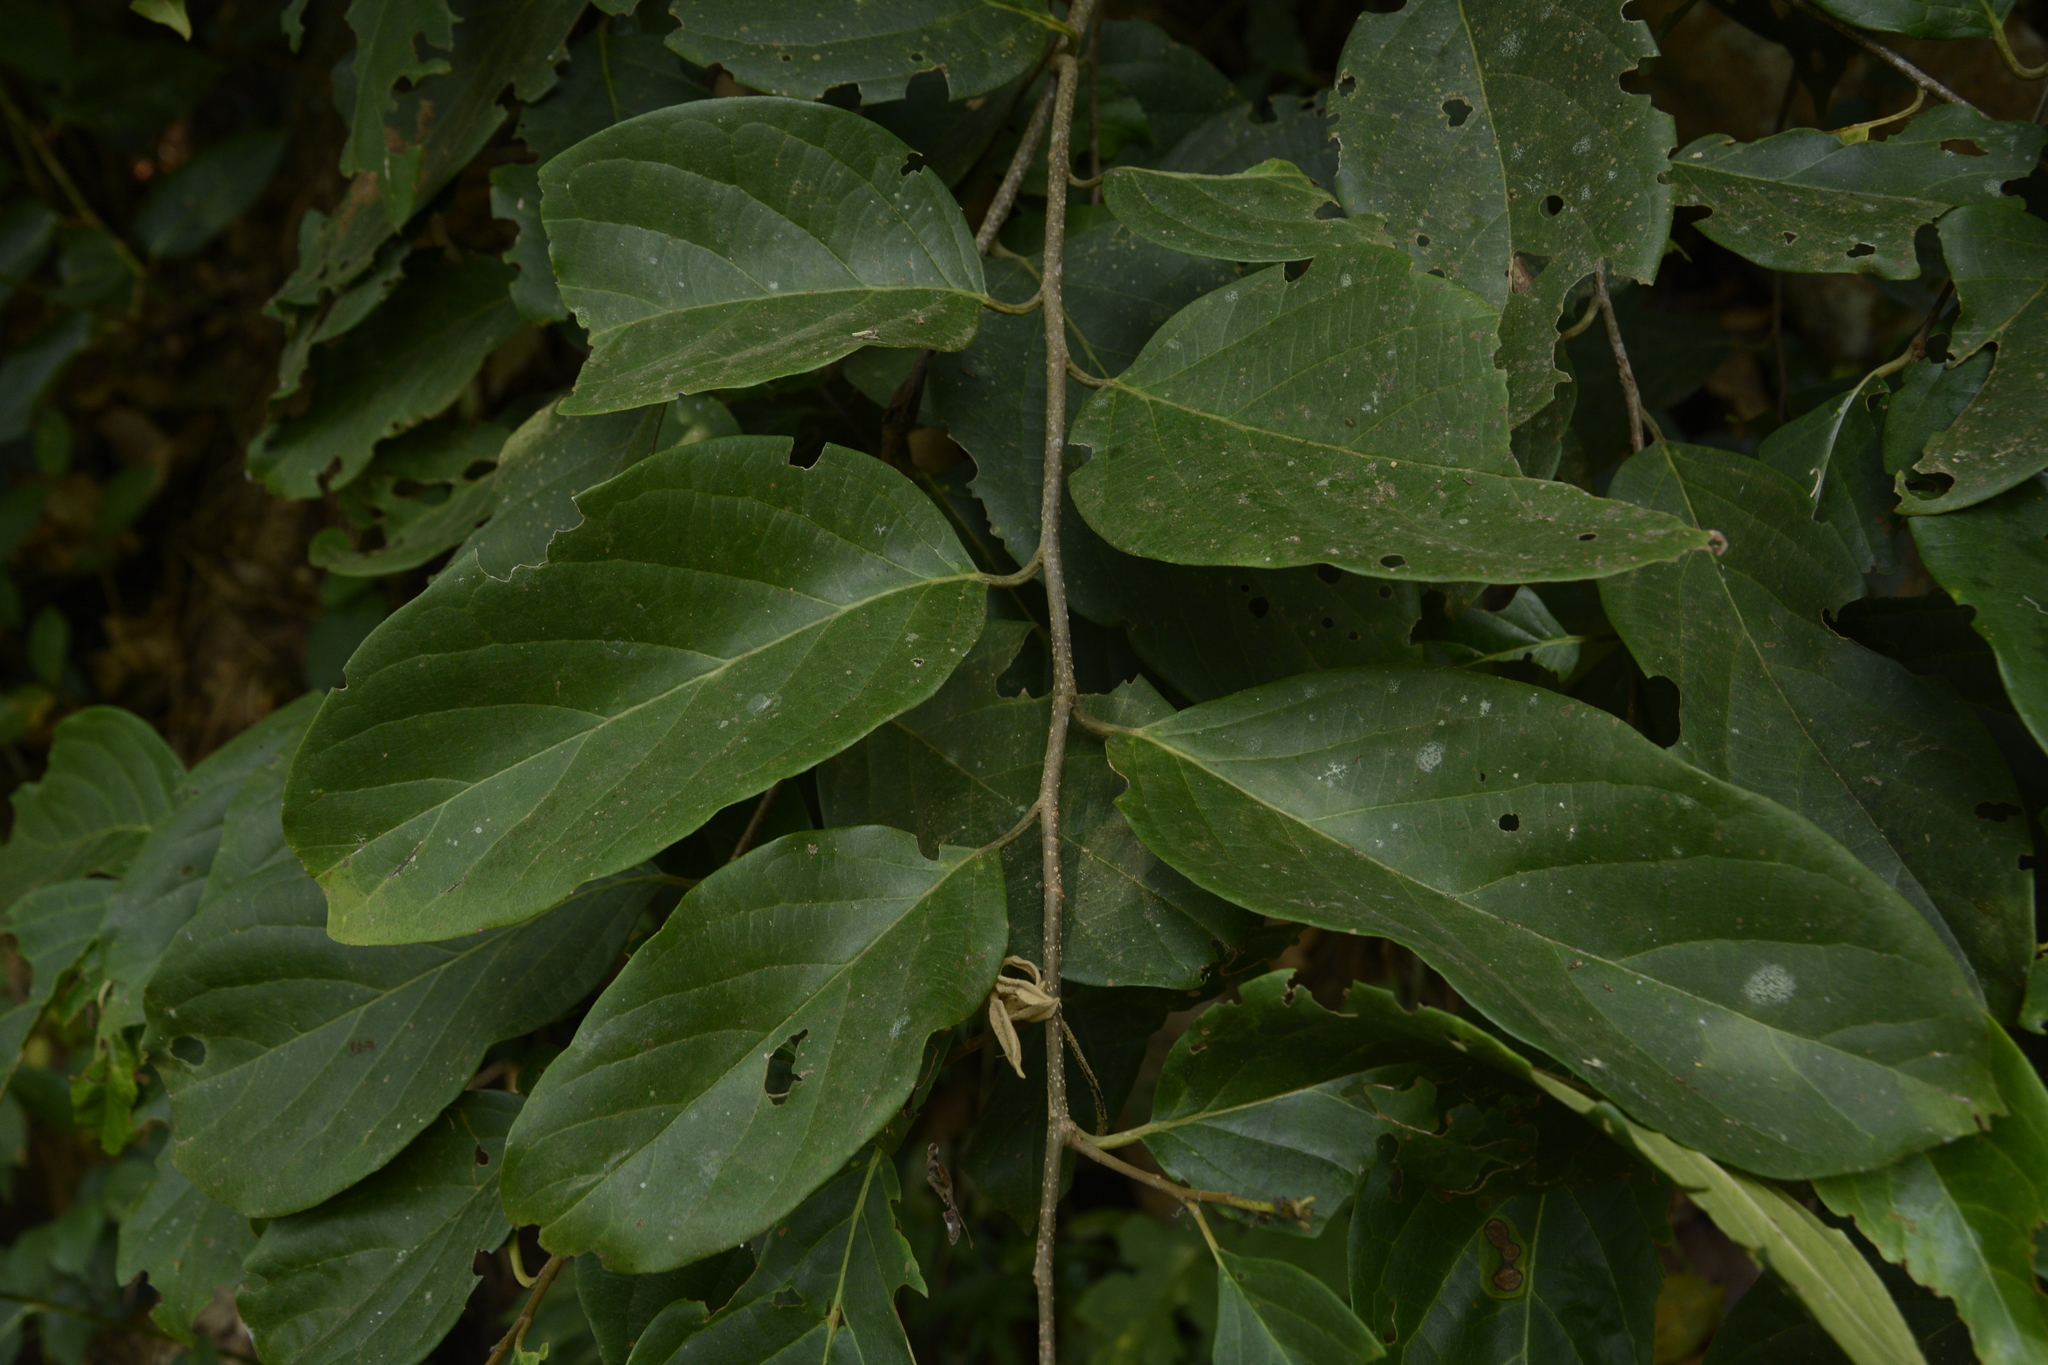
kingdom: Plantae
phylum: Tracheophyta
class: Magnoliopsida
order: Rosales
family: Rosaceae
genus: Prunus
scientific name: Prunus ceylanica
